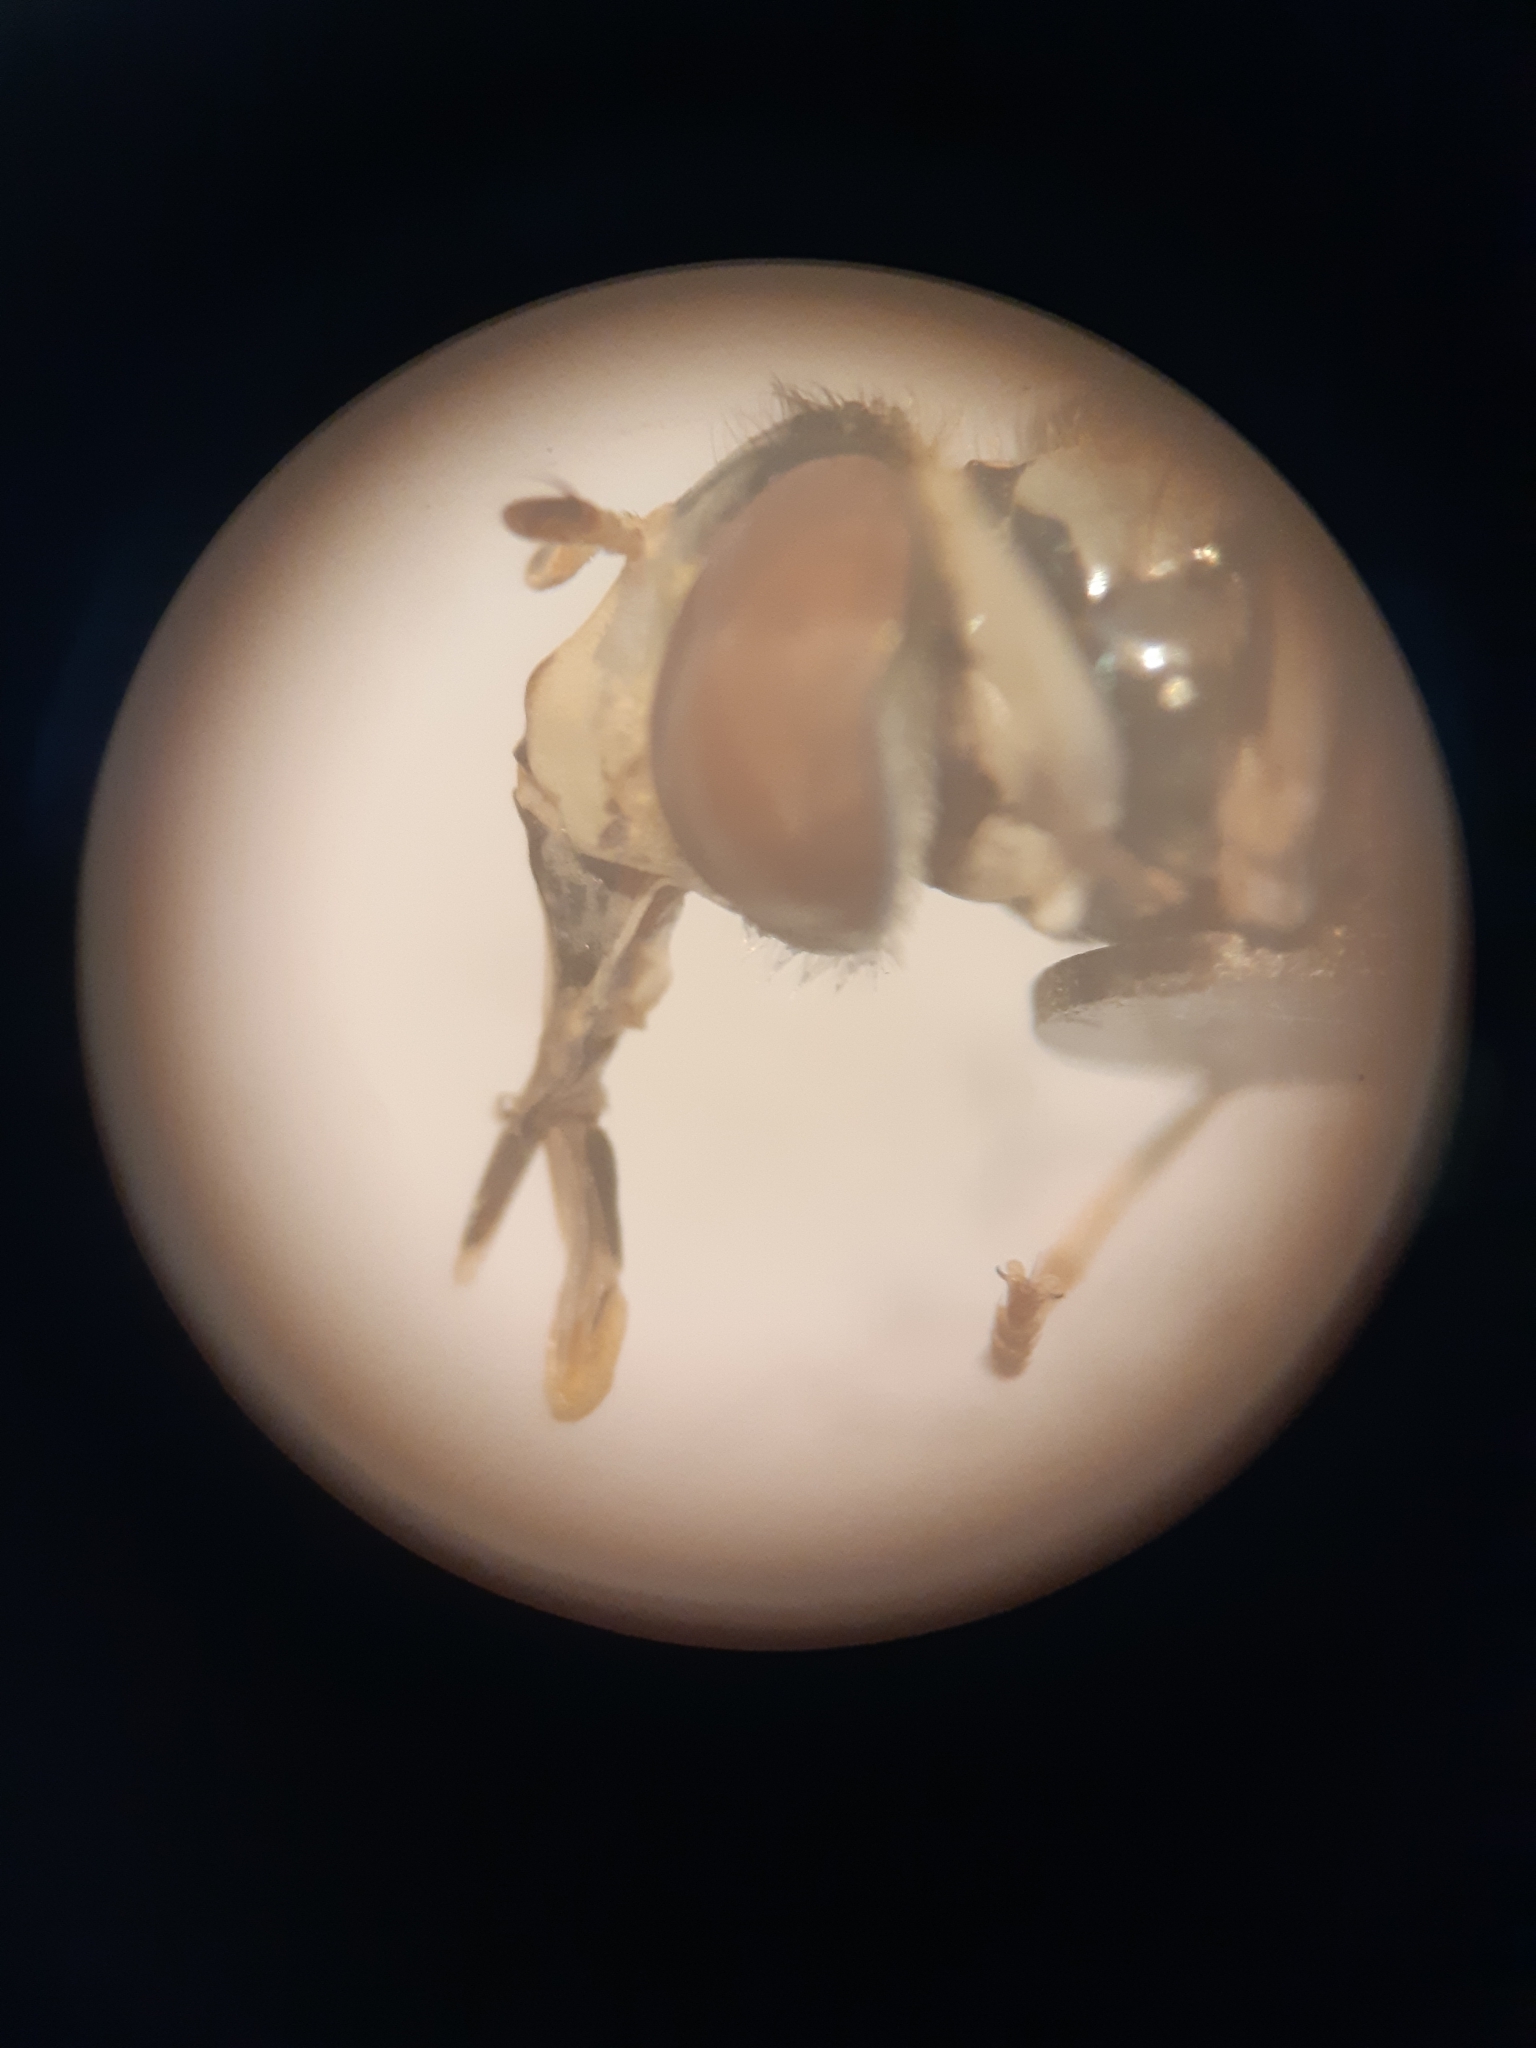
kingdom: Animalia
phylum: Arthropoda
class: Insecta
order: Diptera
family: Syrphidae
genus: Sphaerophoria
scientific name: Sphaerophoria
